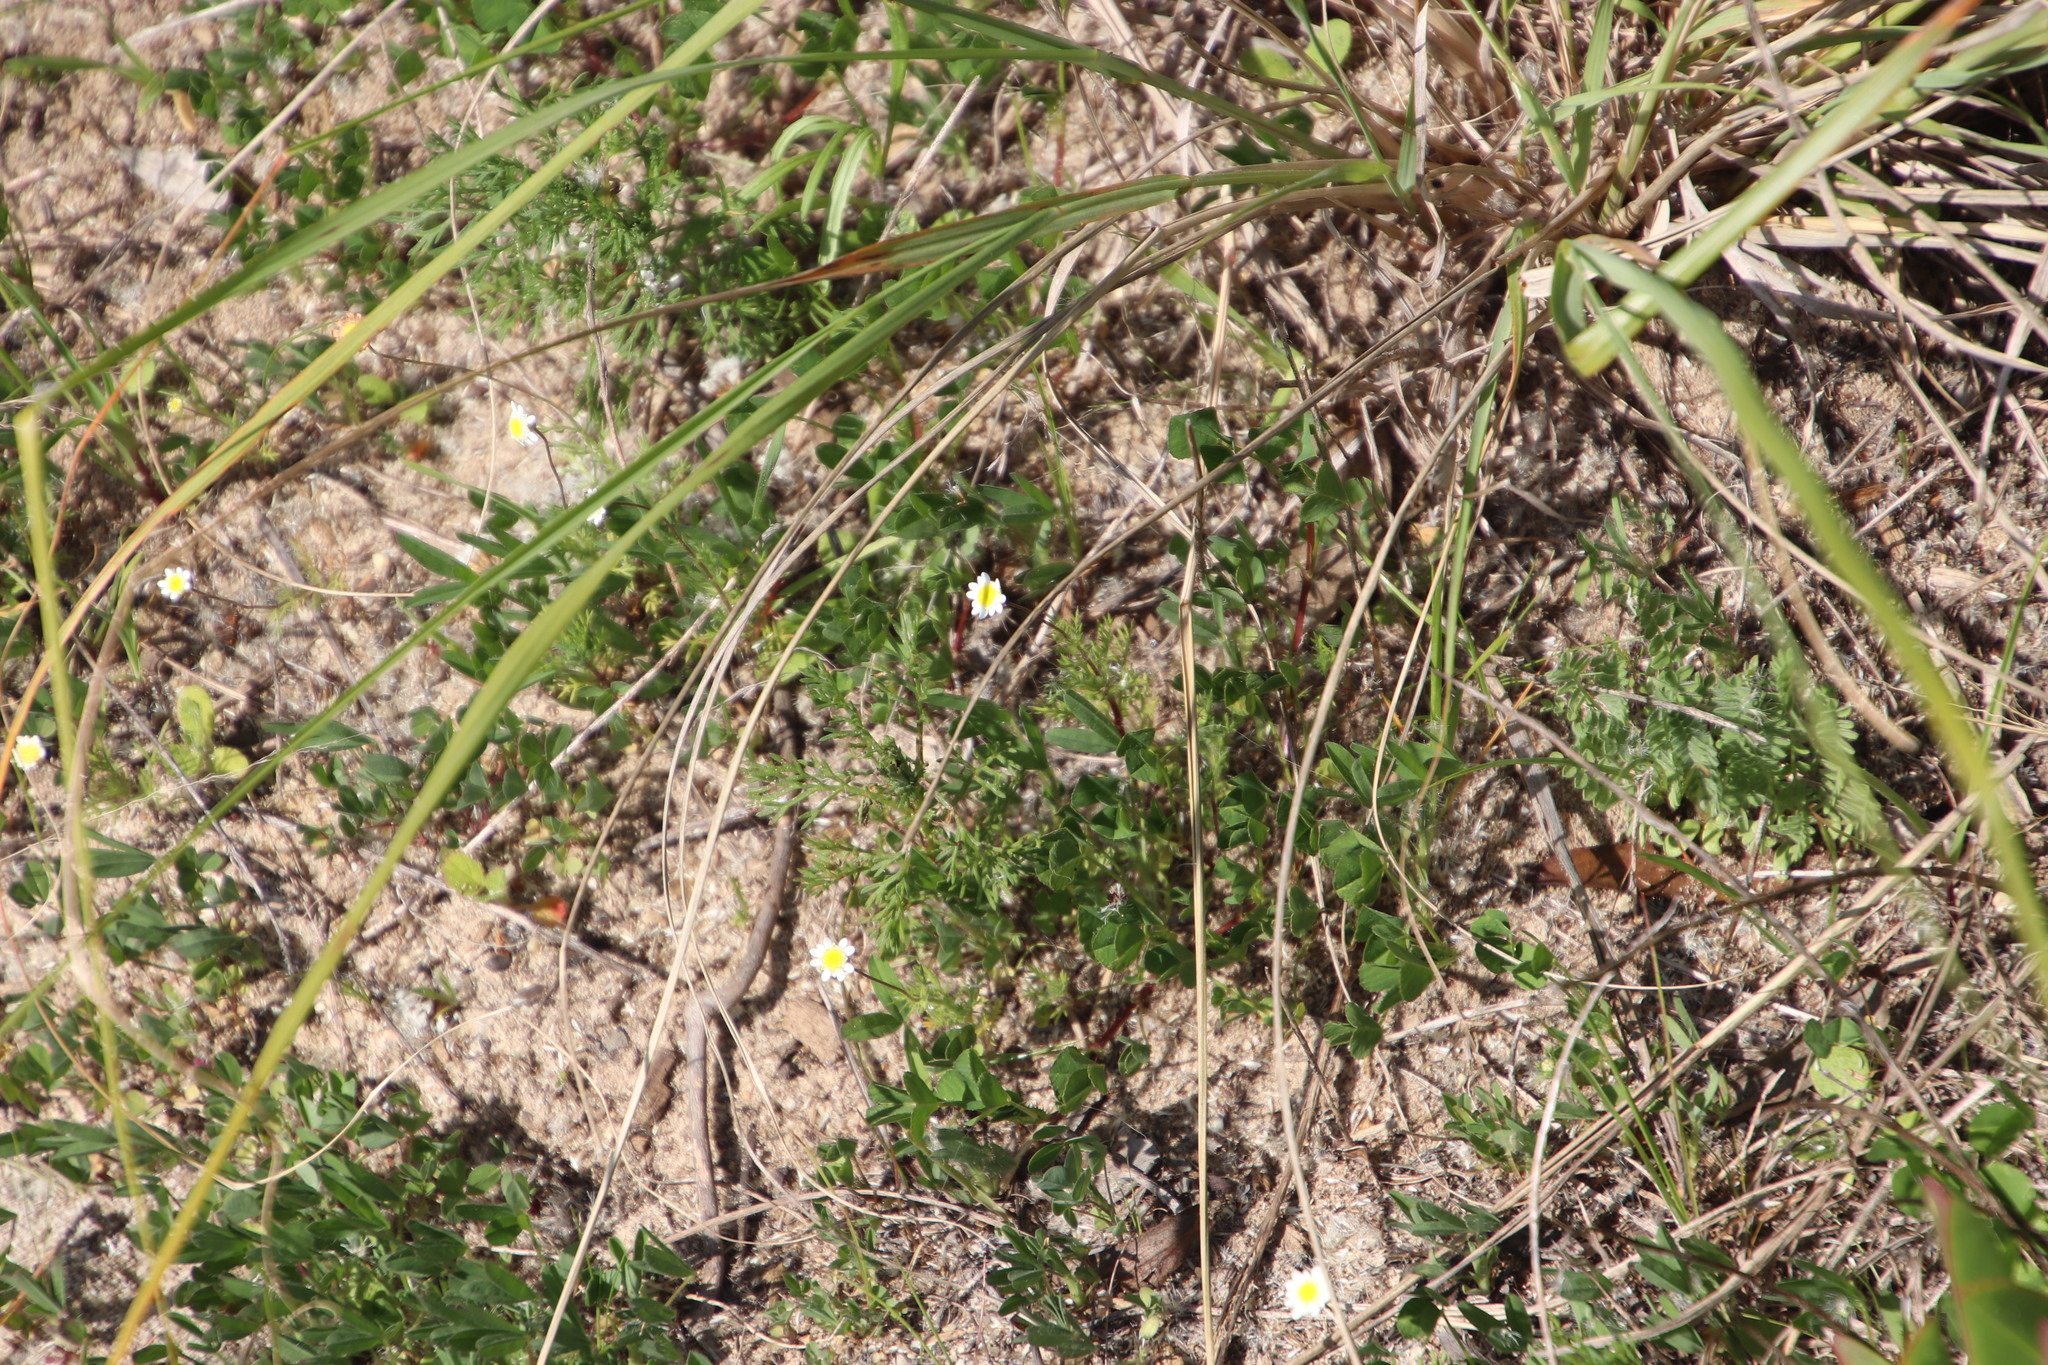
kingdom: Plantae
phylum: Tracheophyta
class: Magnoliopsida
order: Asterales
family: Asteraceae
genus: Cotula
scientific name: Cotula turbinata
